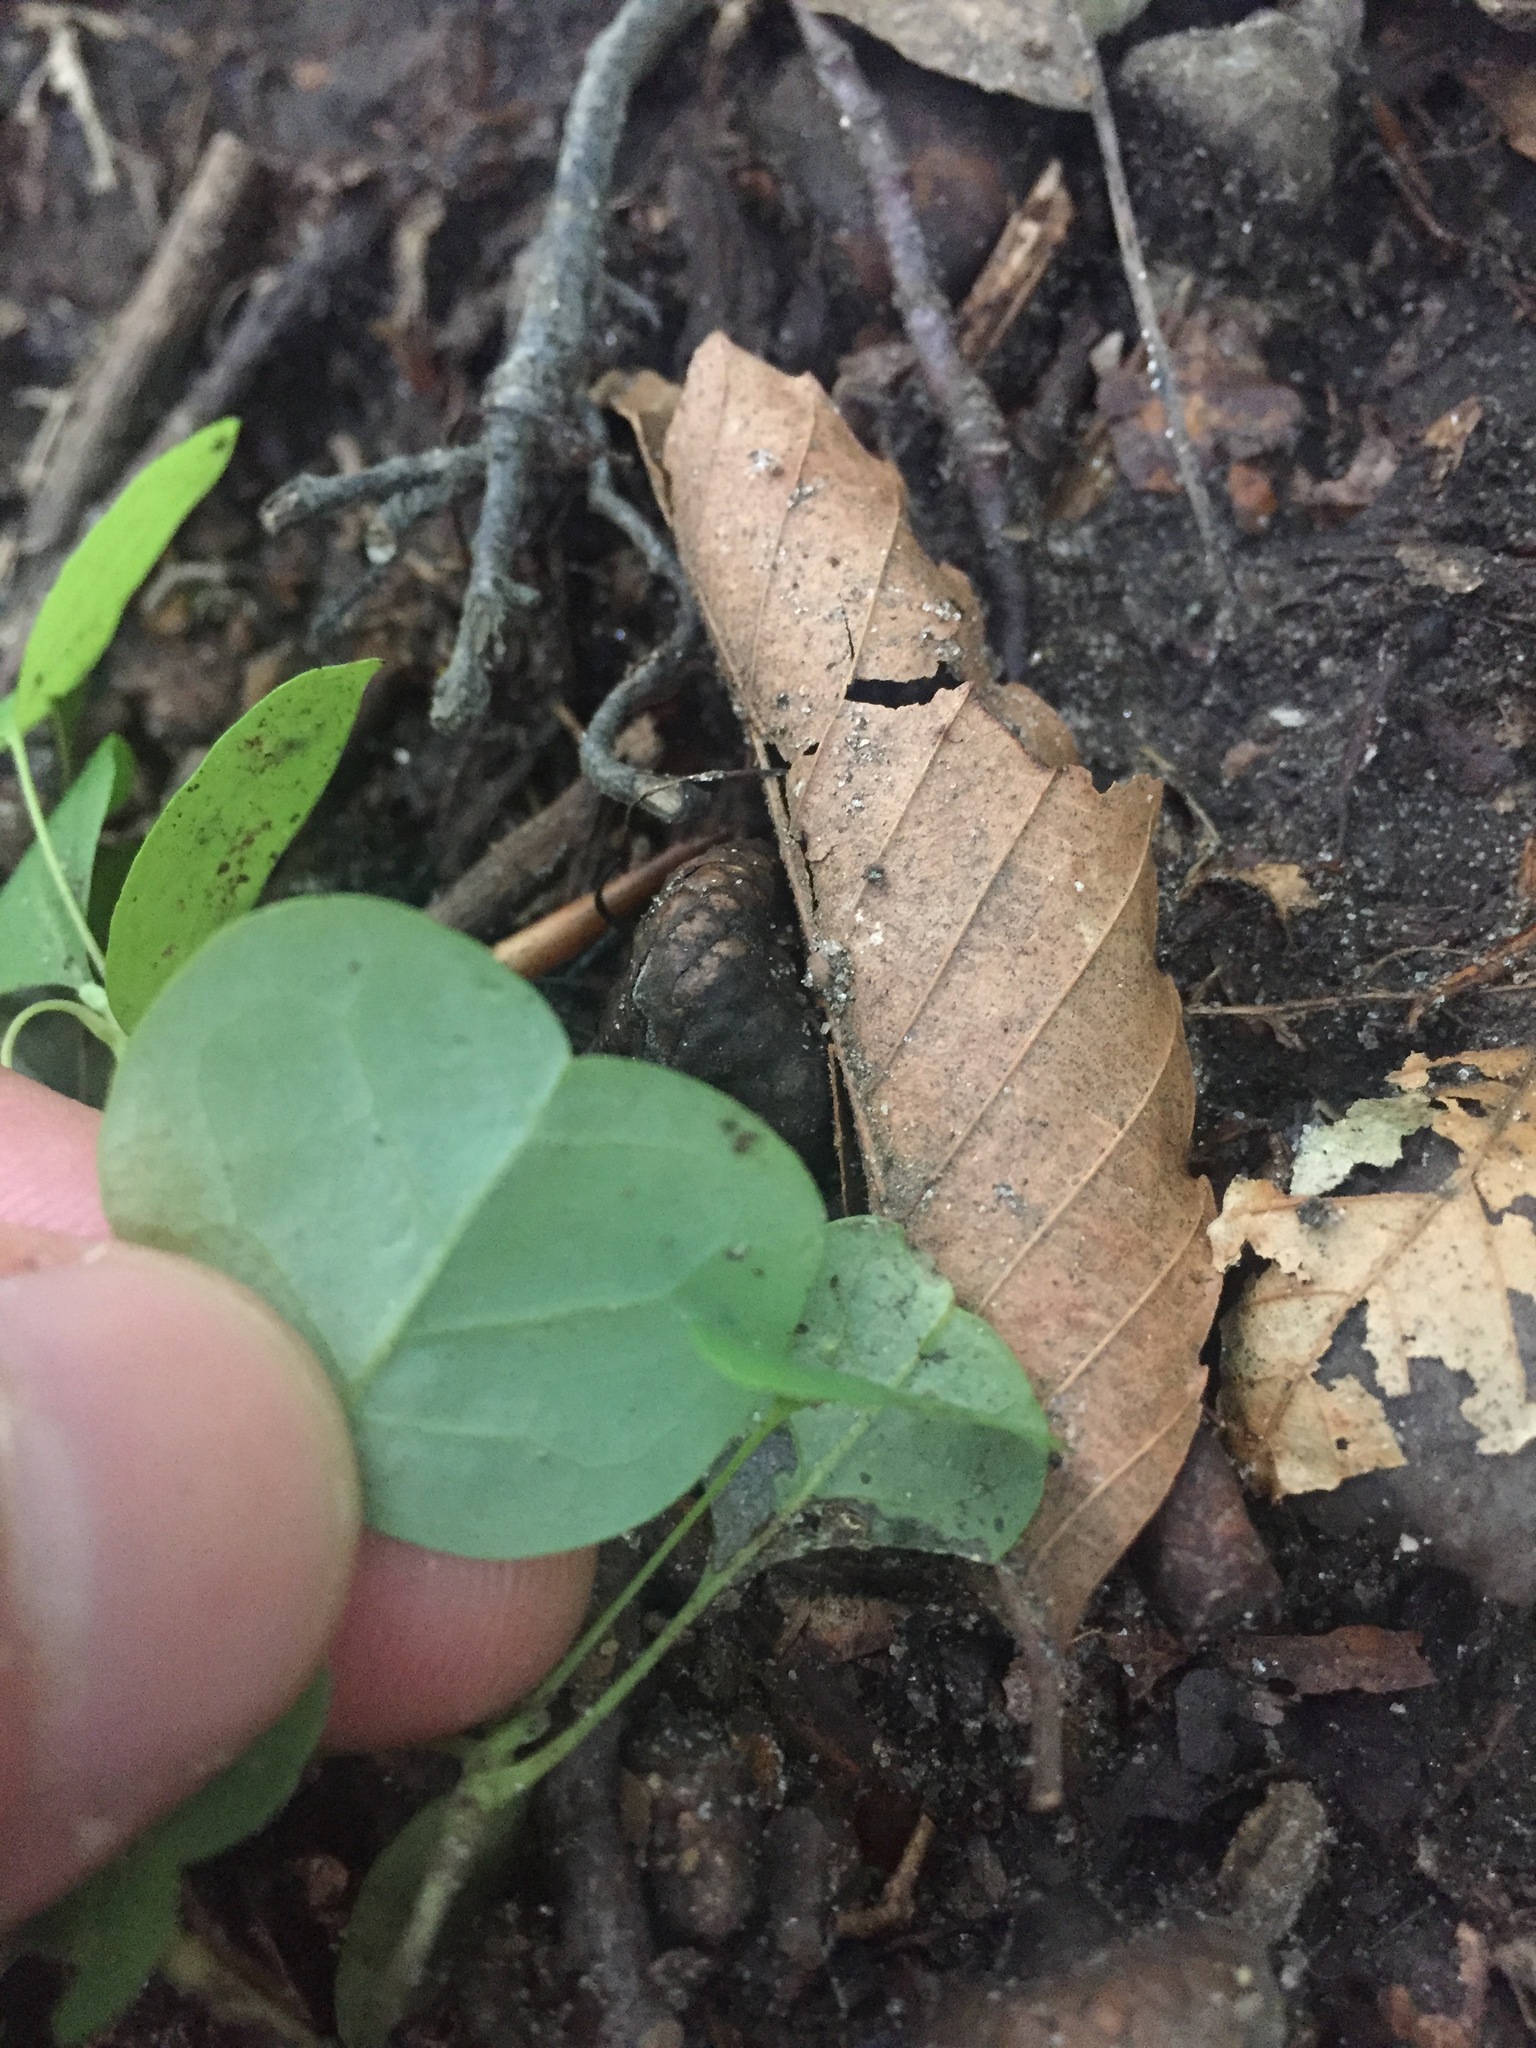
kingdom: Plantae
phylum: Tracheophyta
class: Magnoliopsida
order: Magnoliales
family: Magnoliaceae
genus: Liriodendron
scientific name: Liriodendron tulipifera
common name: Tulip tree
